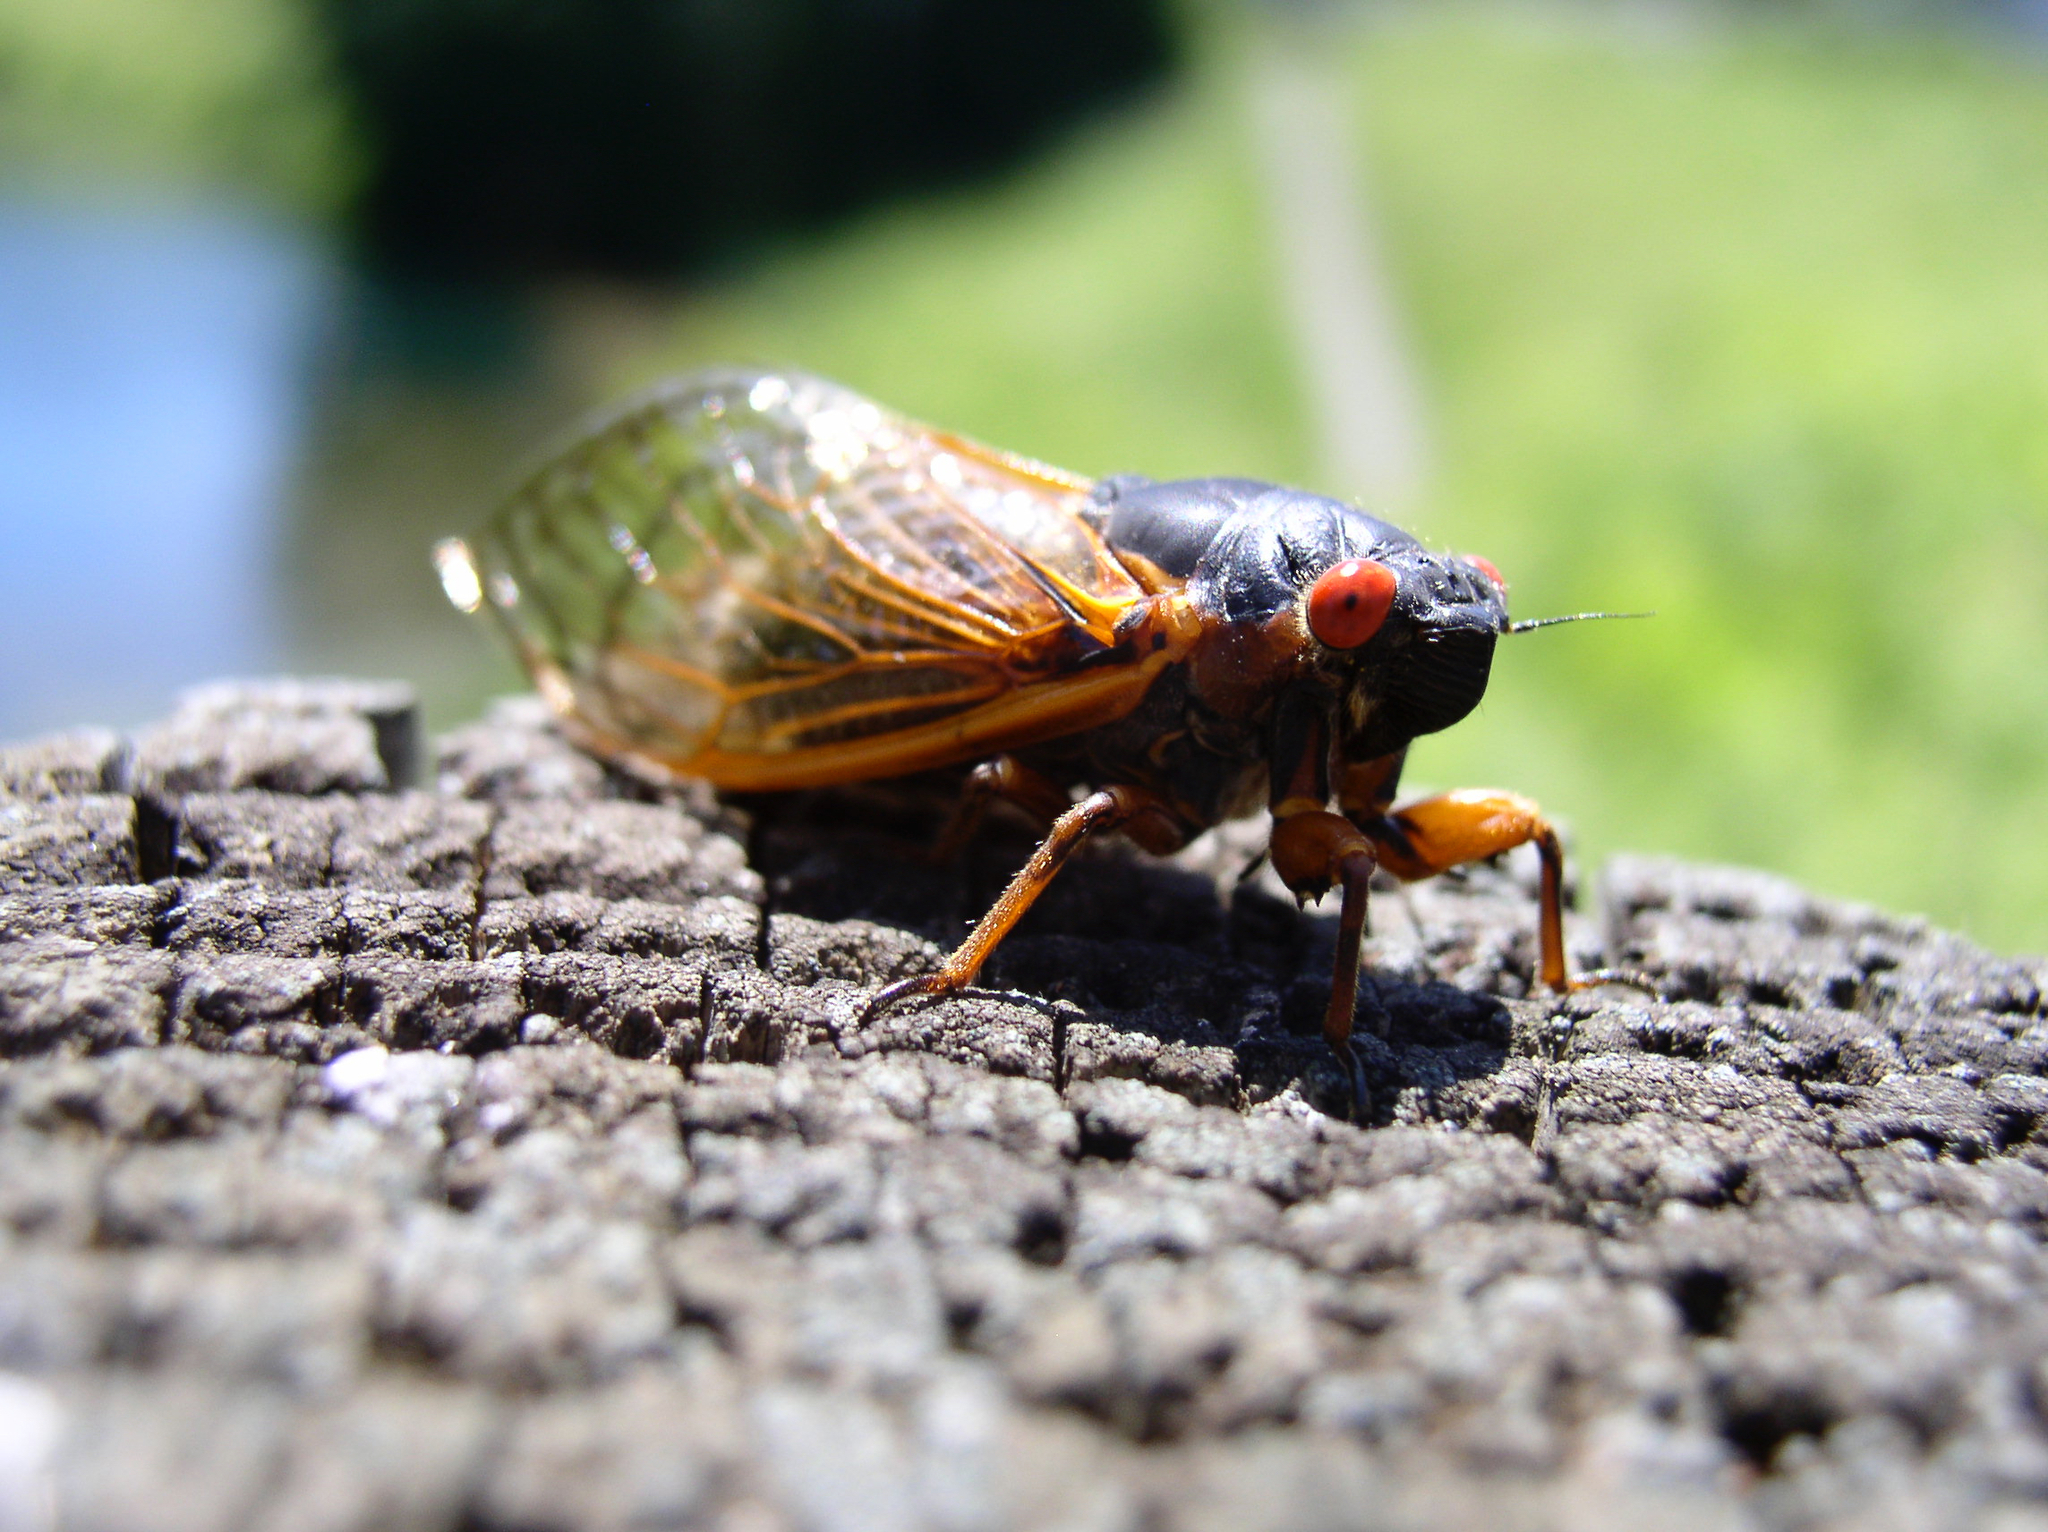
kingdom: Animalia
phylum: Arthropoda
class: Insecta
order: Hemiptera
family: Cicadidae
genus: Magicicada
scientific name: Magicicada septendecim
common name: Periodical cicada
